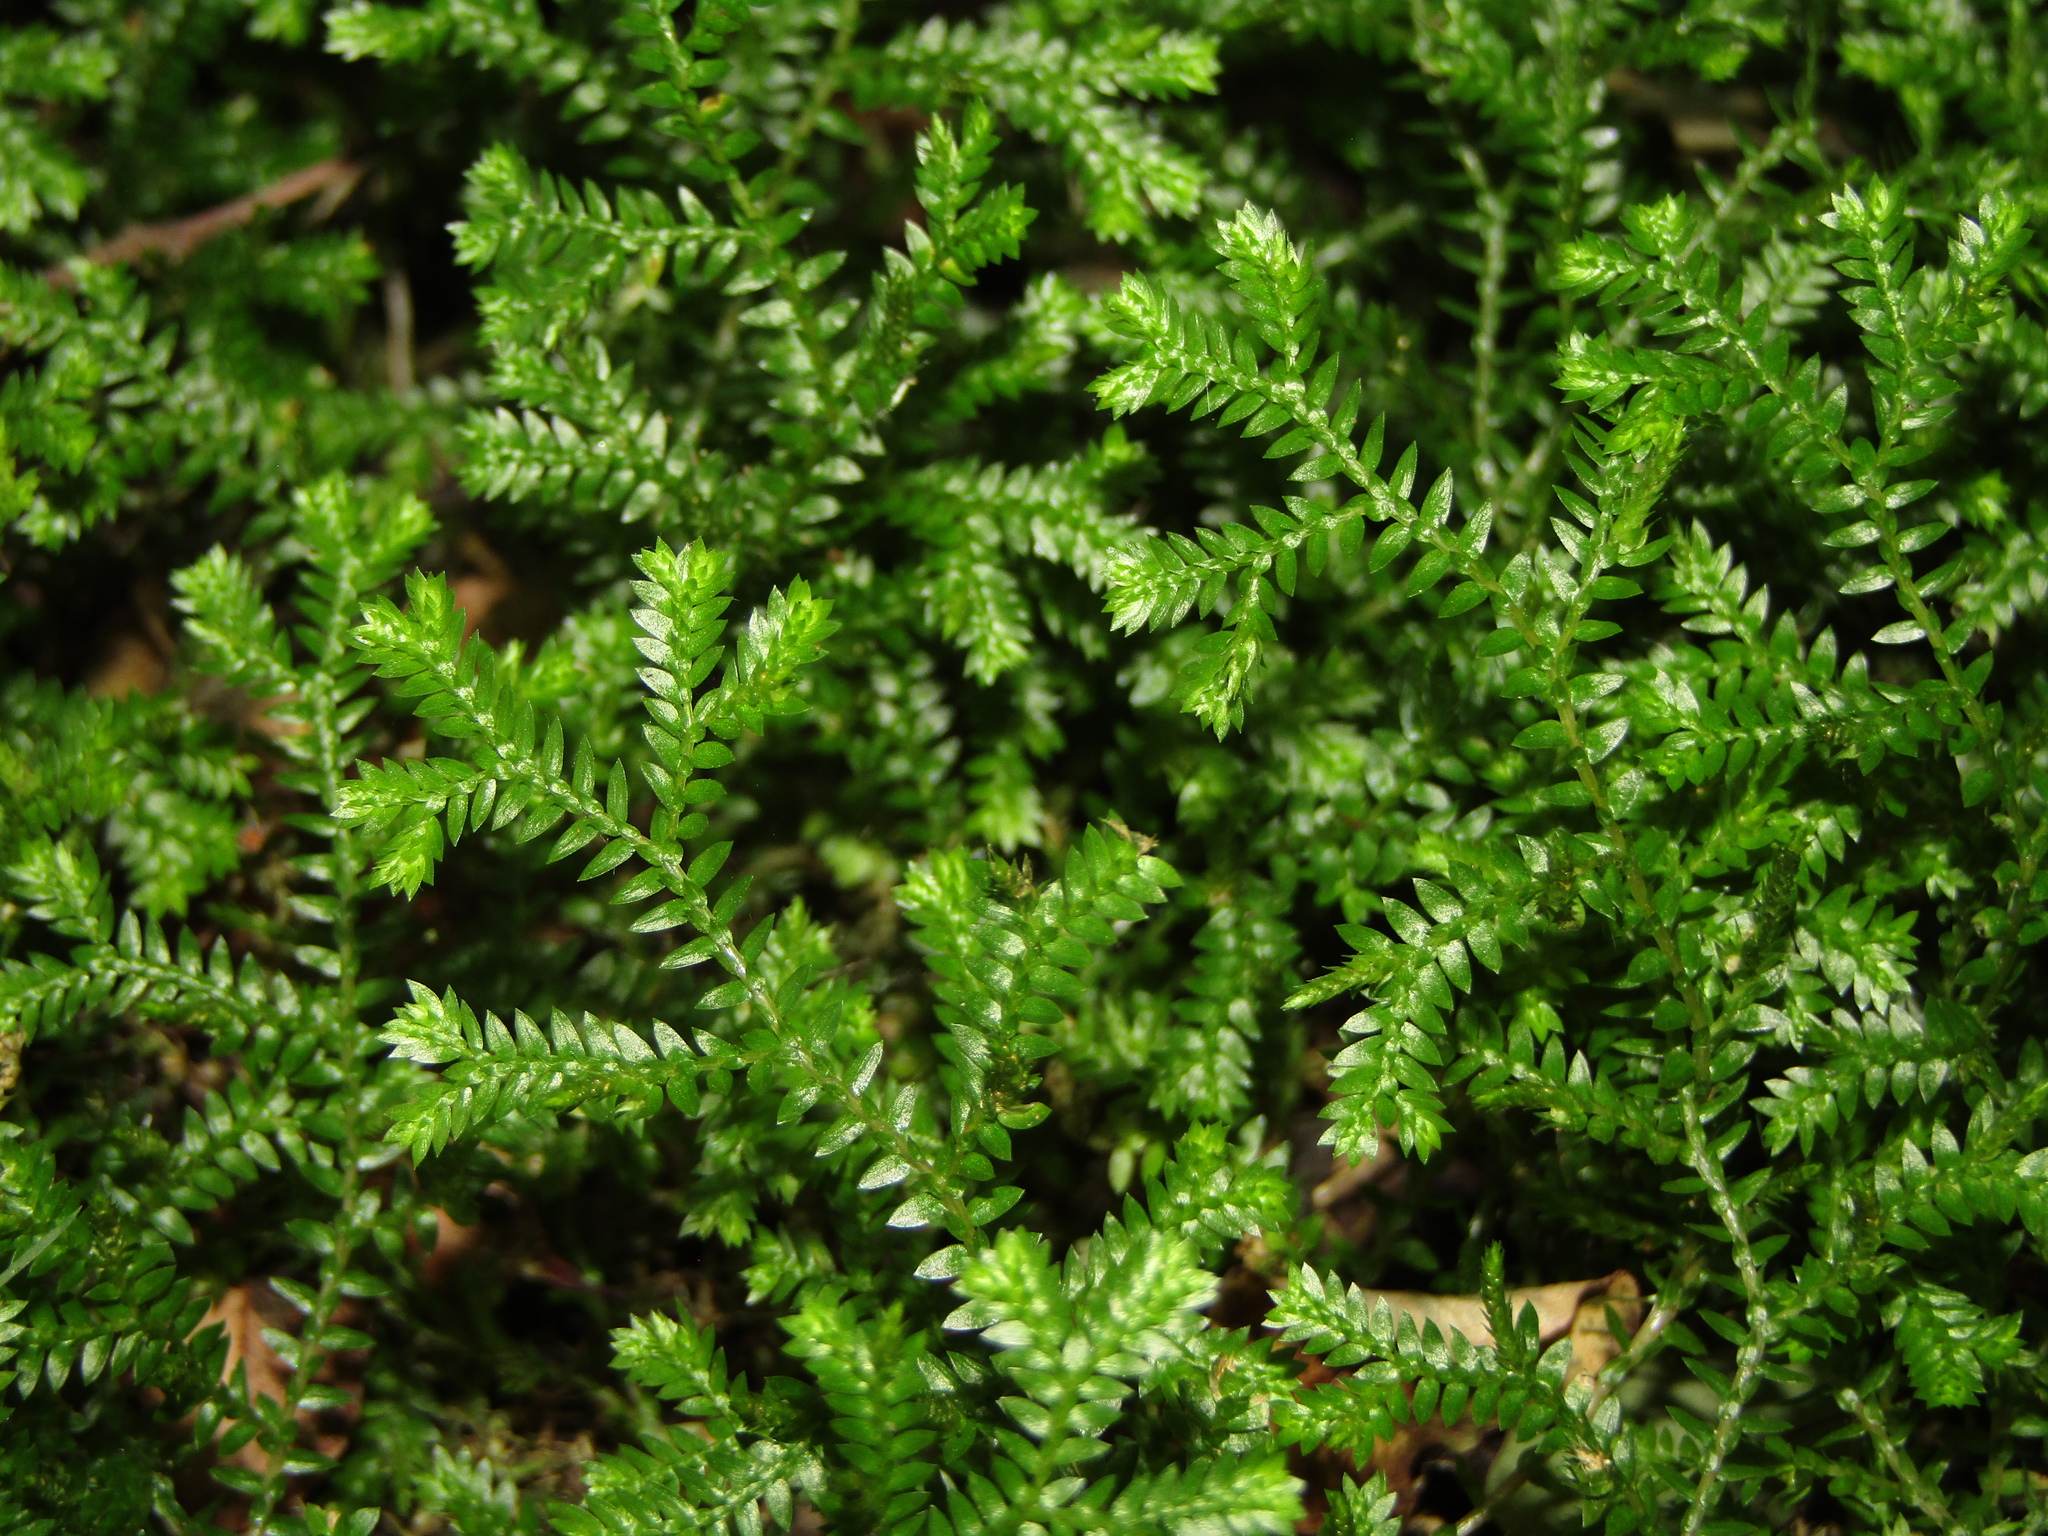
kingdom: Plantae
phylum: Tracheophyta
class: Lycopodiopsida
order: Selaginellales
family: Selaginellaceae
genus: Selaginella
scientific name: Selaginella kraussiana
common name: Krauss' spikemoss
